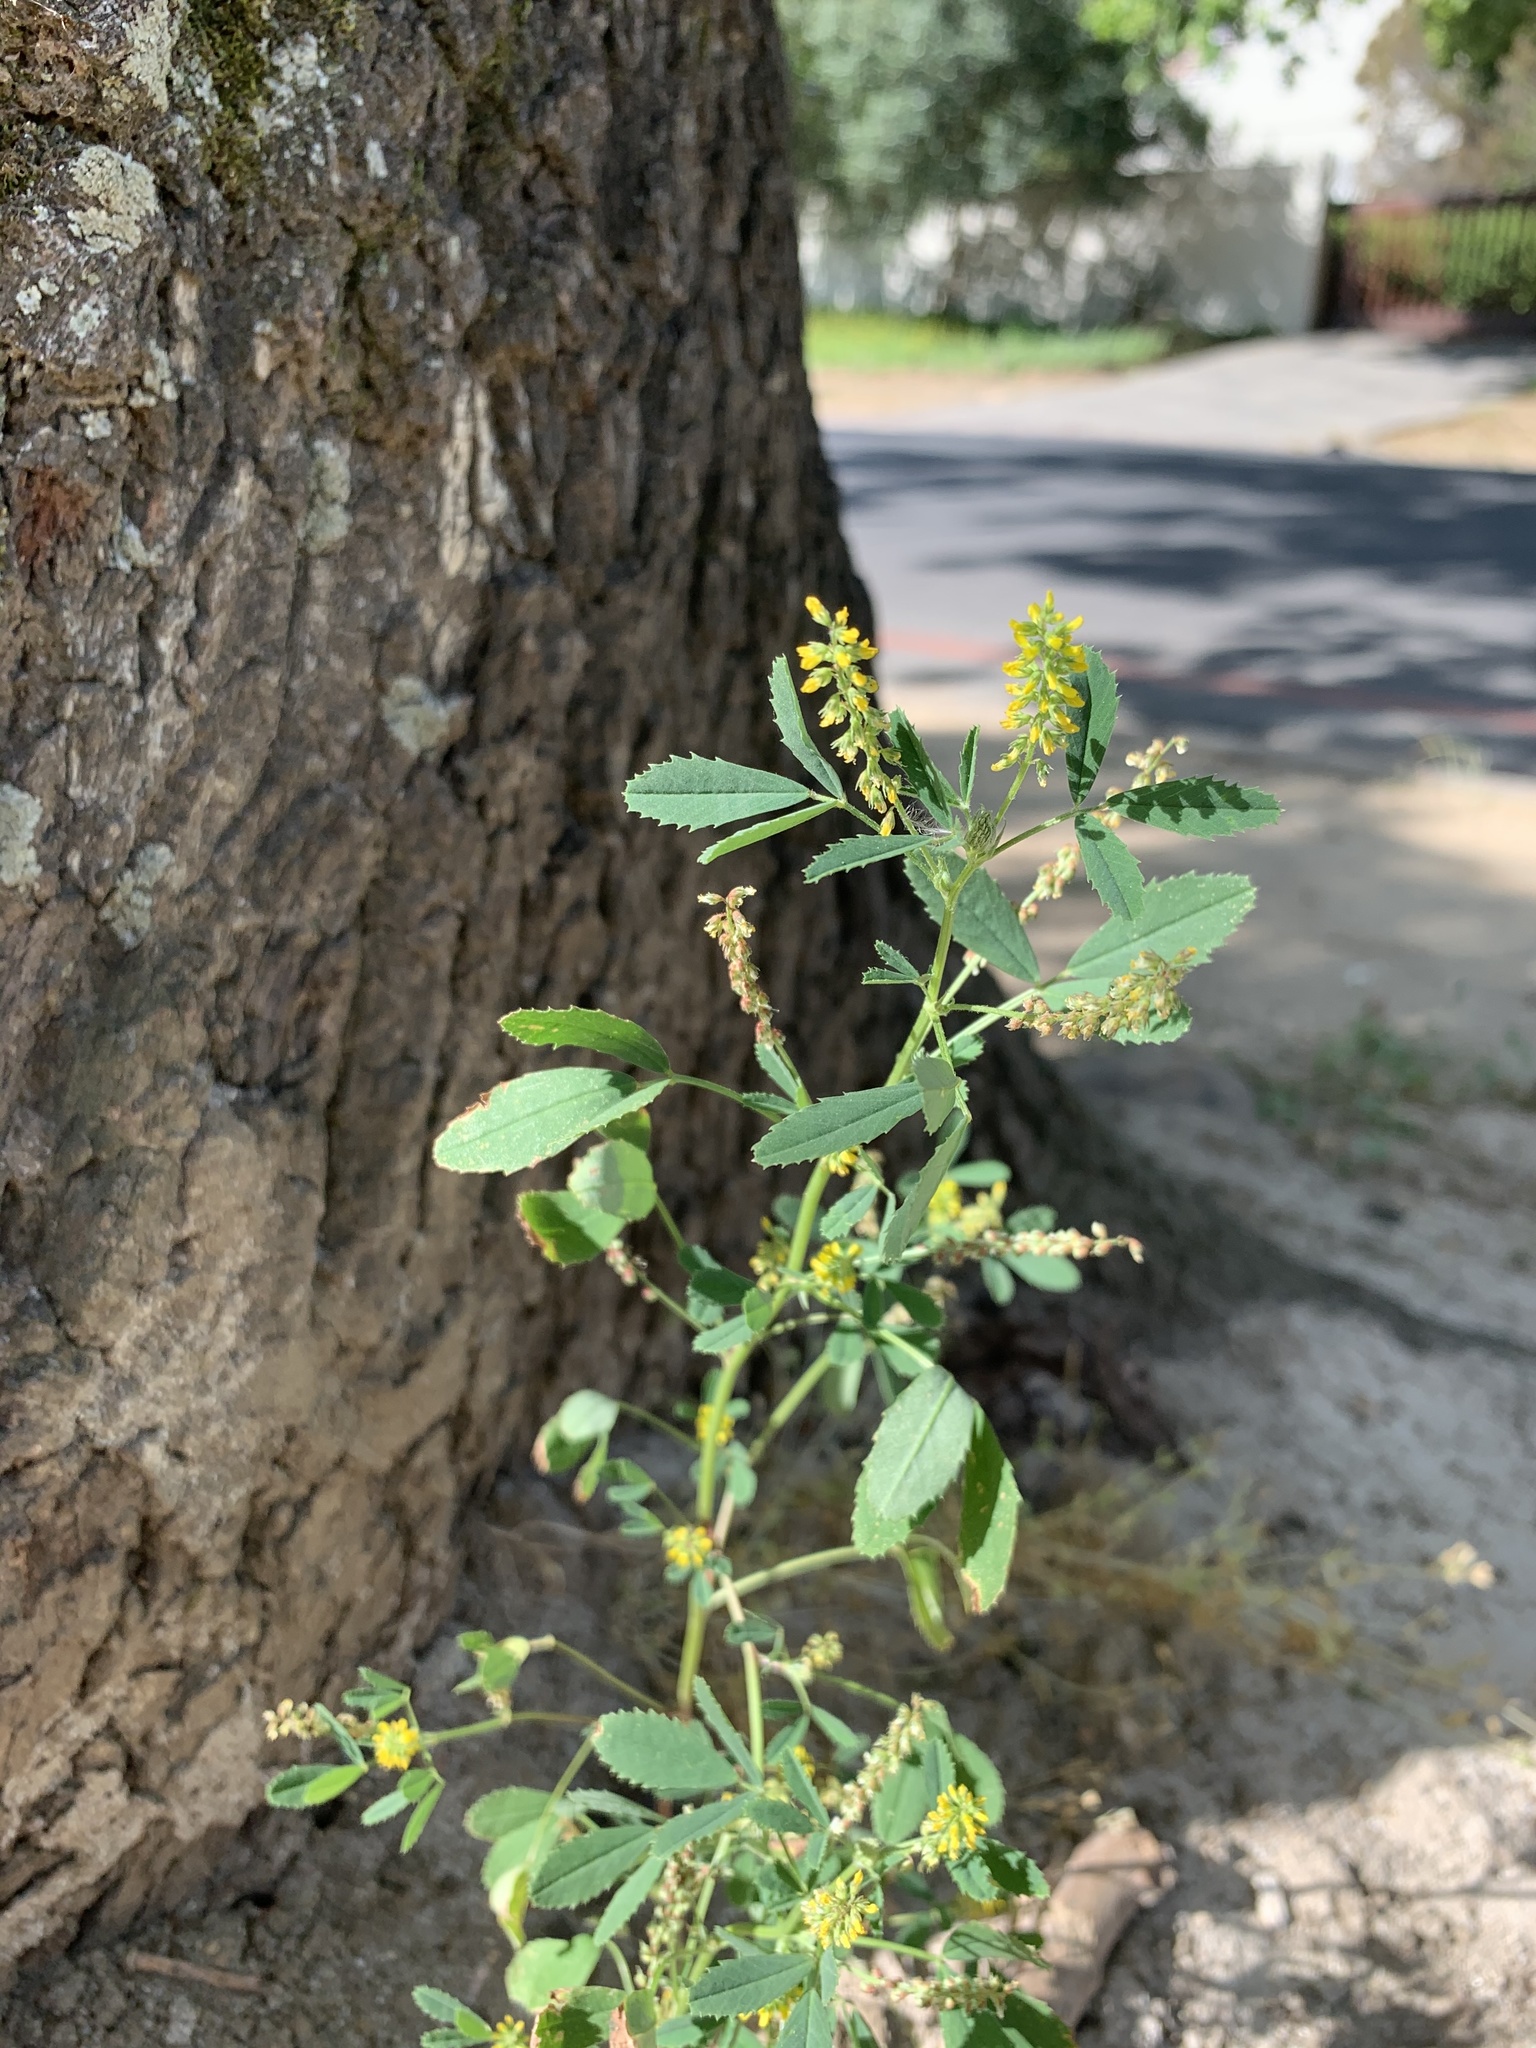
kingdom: Plantae
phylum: Tracheophyta
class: Magnoliopsida
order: Fabales
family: Fabaceae
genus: Melilotus
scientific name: Melilotus indicus
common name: Small melilot
